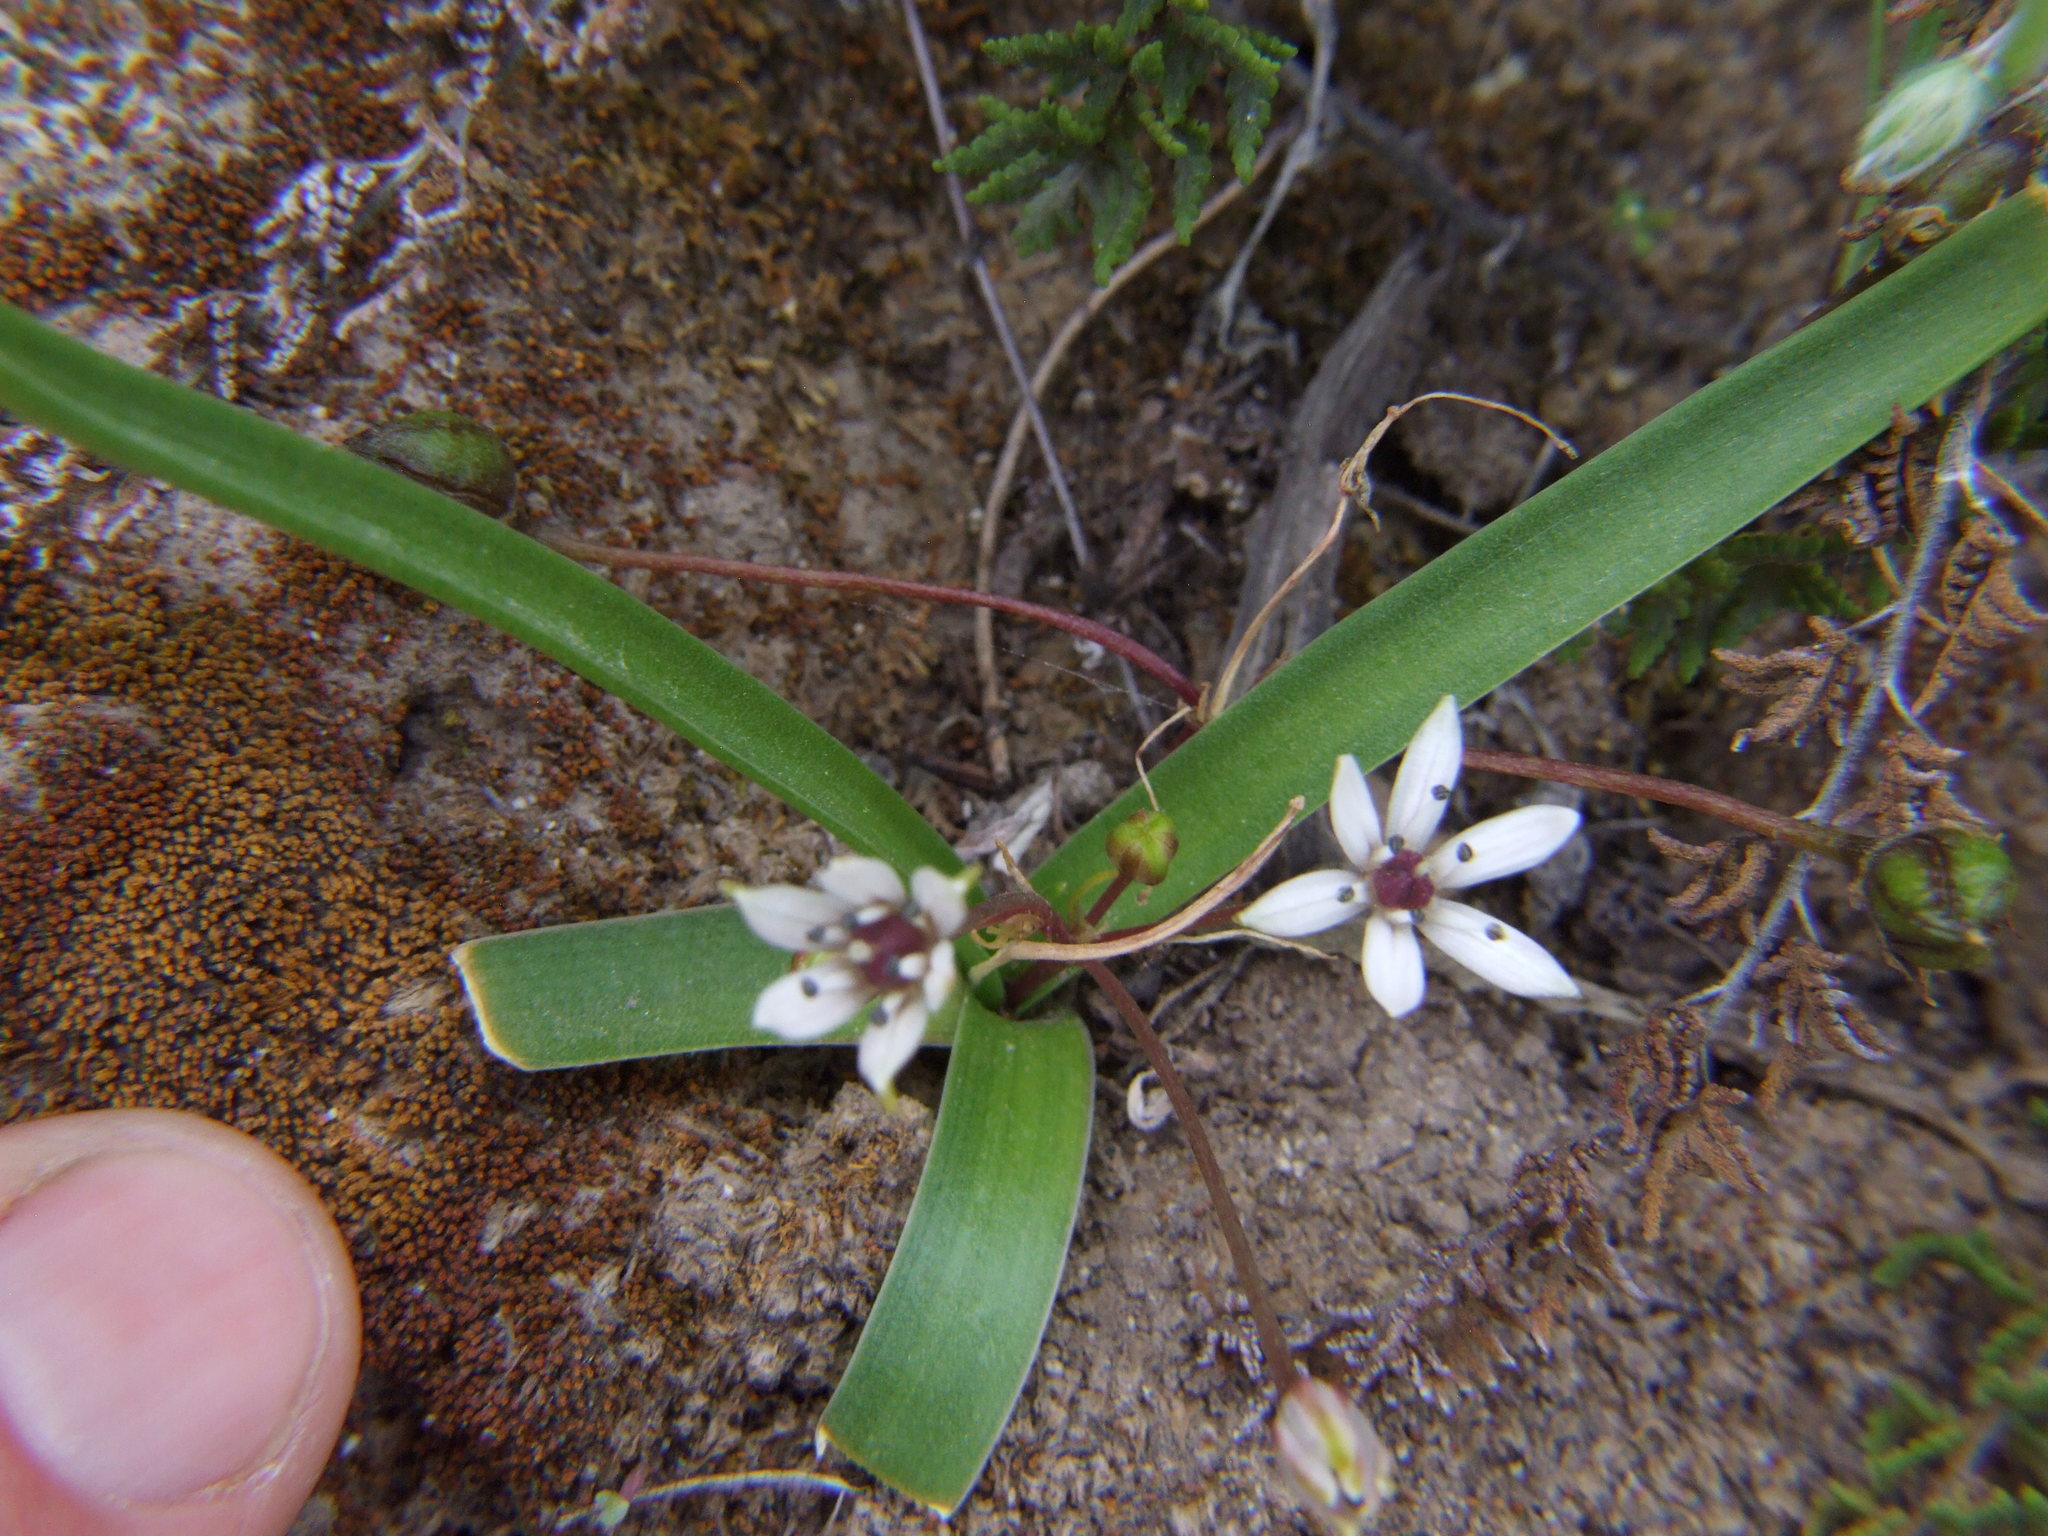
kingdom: Plantae
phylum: Tracheophyta
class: Liliopsida
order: Asparagales
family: Asparagaceae
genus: Oziroe
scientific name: Oziroe acaulis
